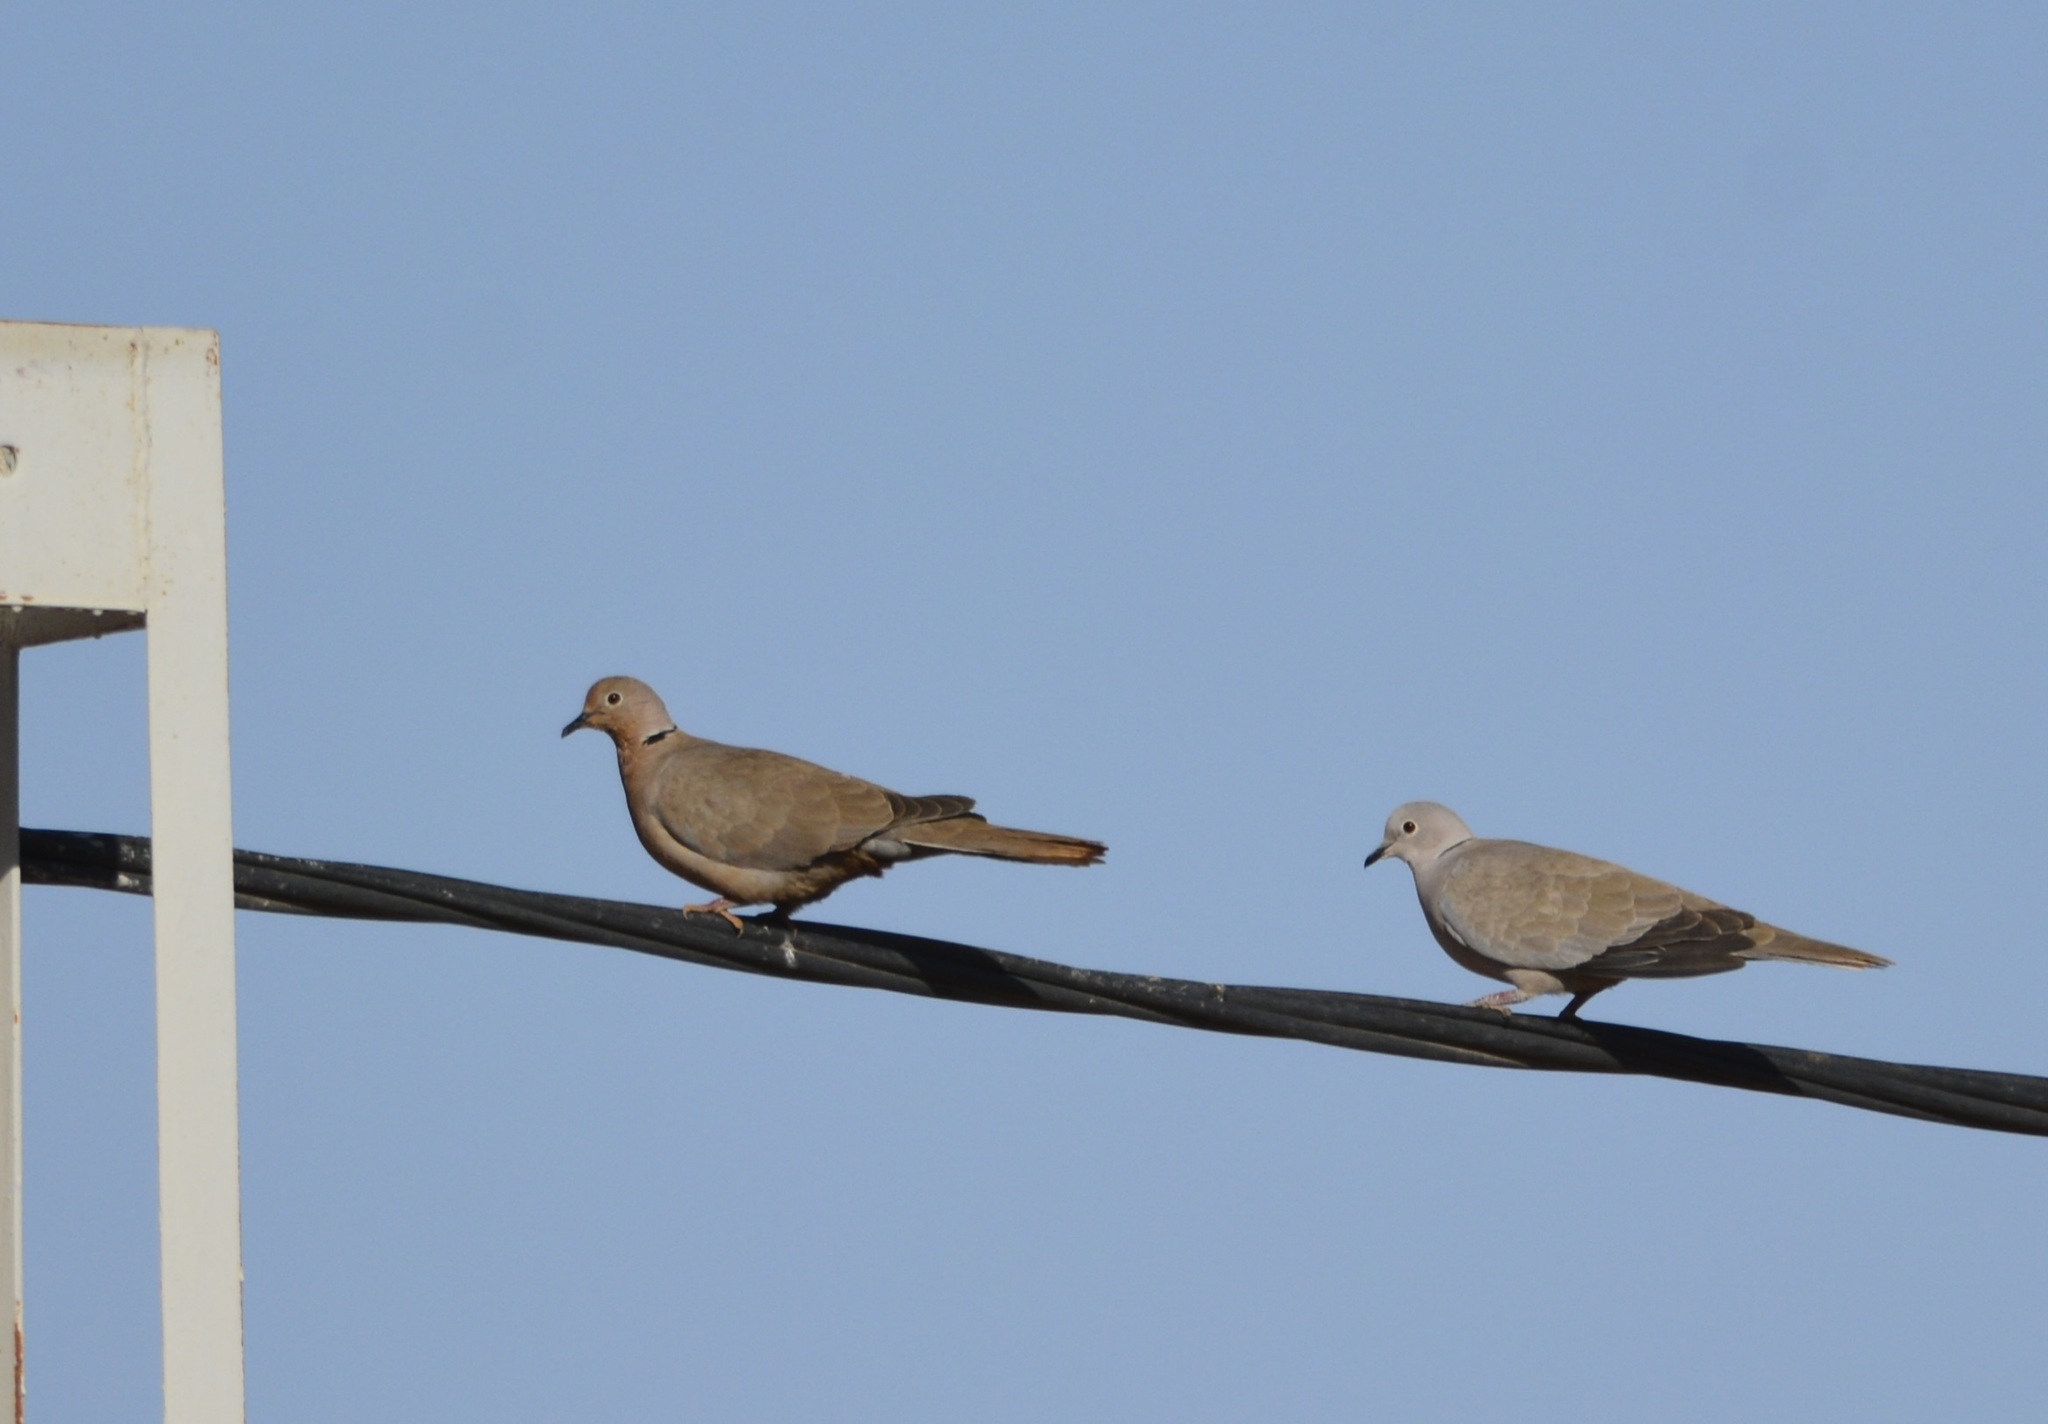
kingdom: Animalia
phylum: Chordata
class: Aves
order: Columbiformes
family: Columbidae
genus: Streptopelia
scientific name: Streptopelia decaocto
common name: Eurasian collared dove
